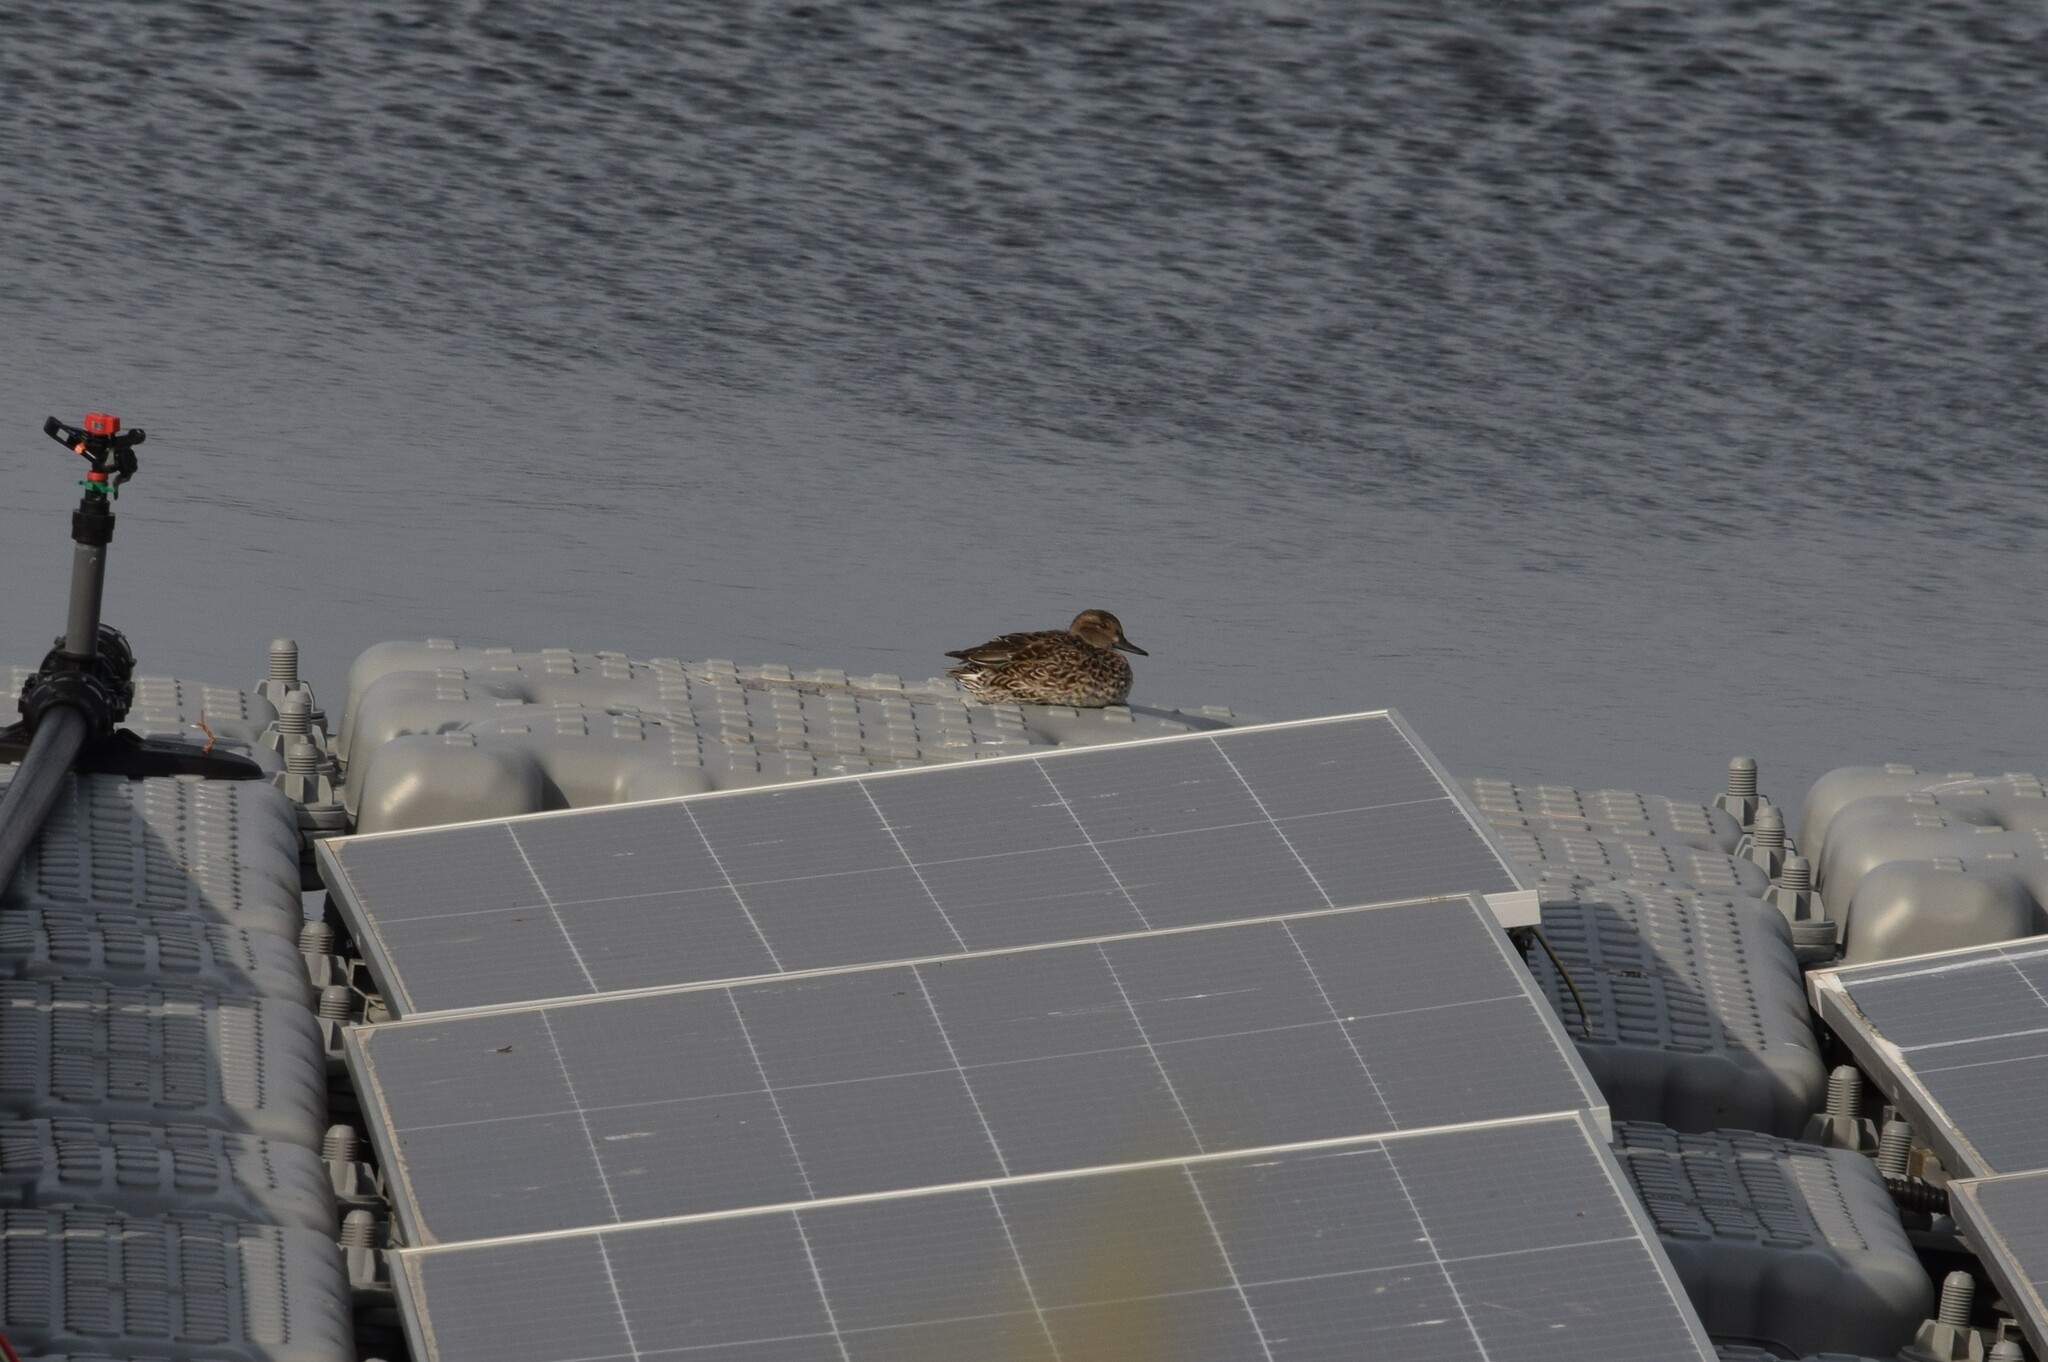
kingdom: Animalia
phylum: Chordata
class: Aves
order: Anseriformes
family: Anatidae
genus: Anas
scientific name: Anas crecca
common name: Eurasian teal
